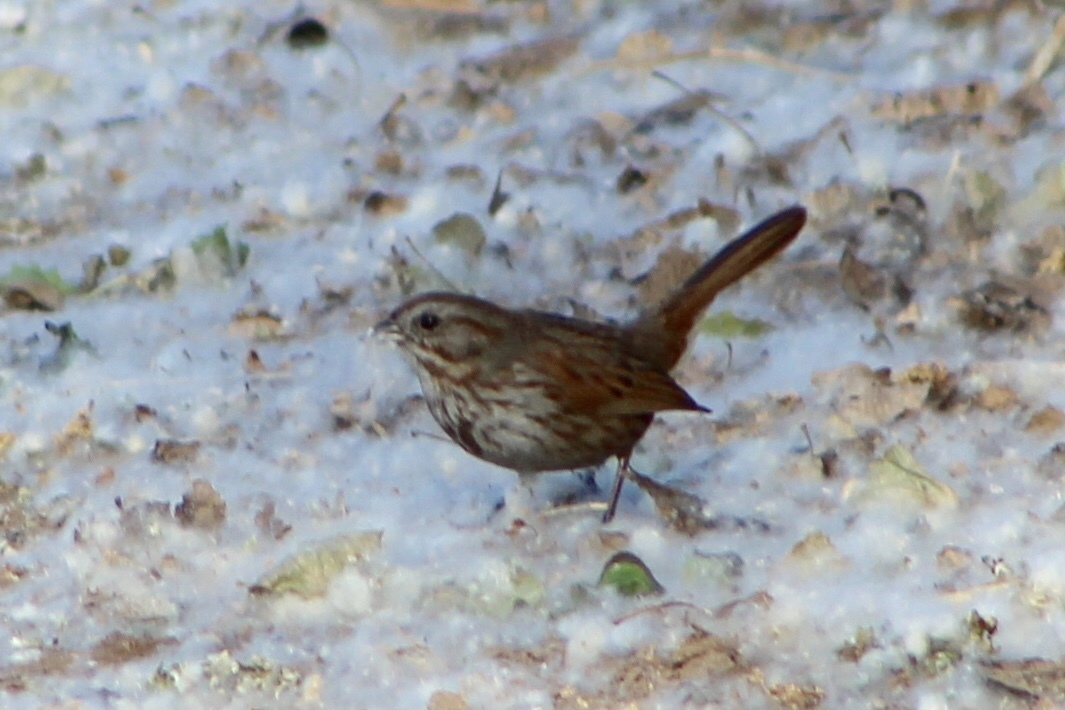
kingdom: Animalia
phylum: Chordata
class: Aves
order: Passeriformes
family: Passerellidae
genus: Melospiza
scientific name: Melospiza melodia
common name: Song sparrow
